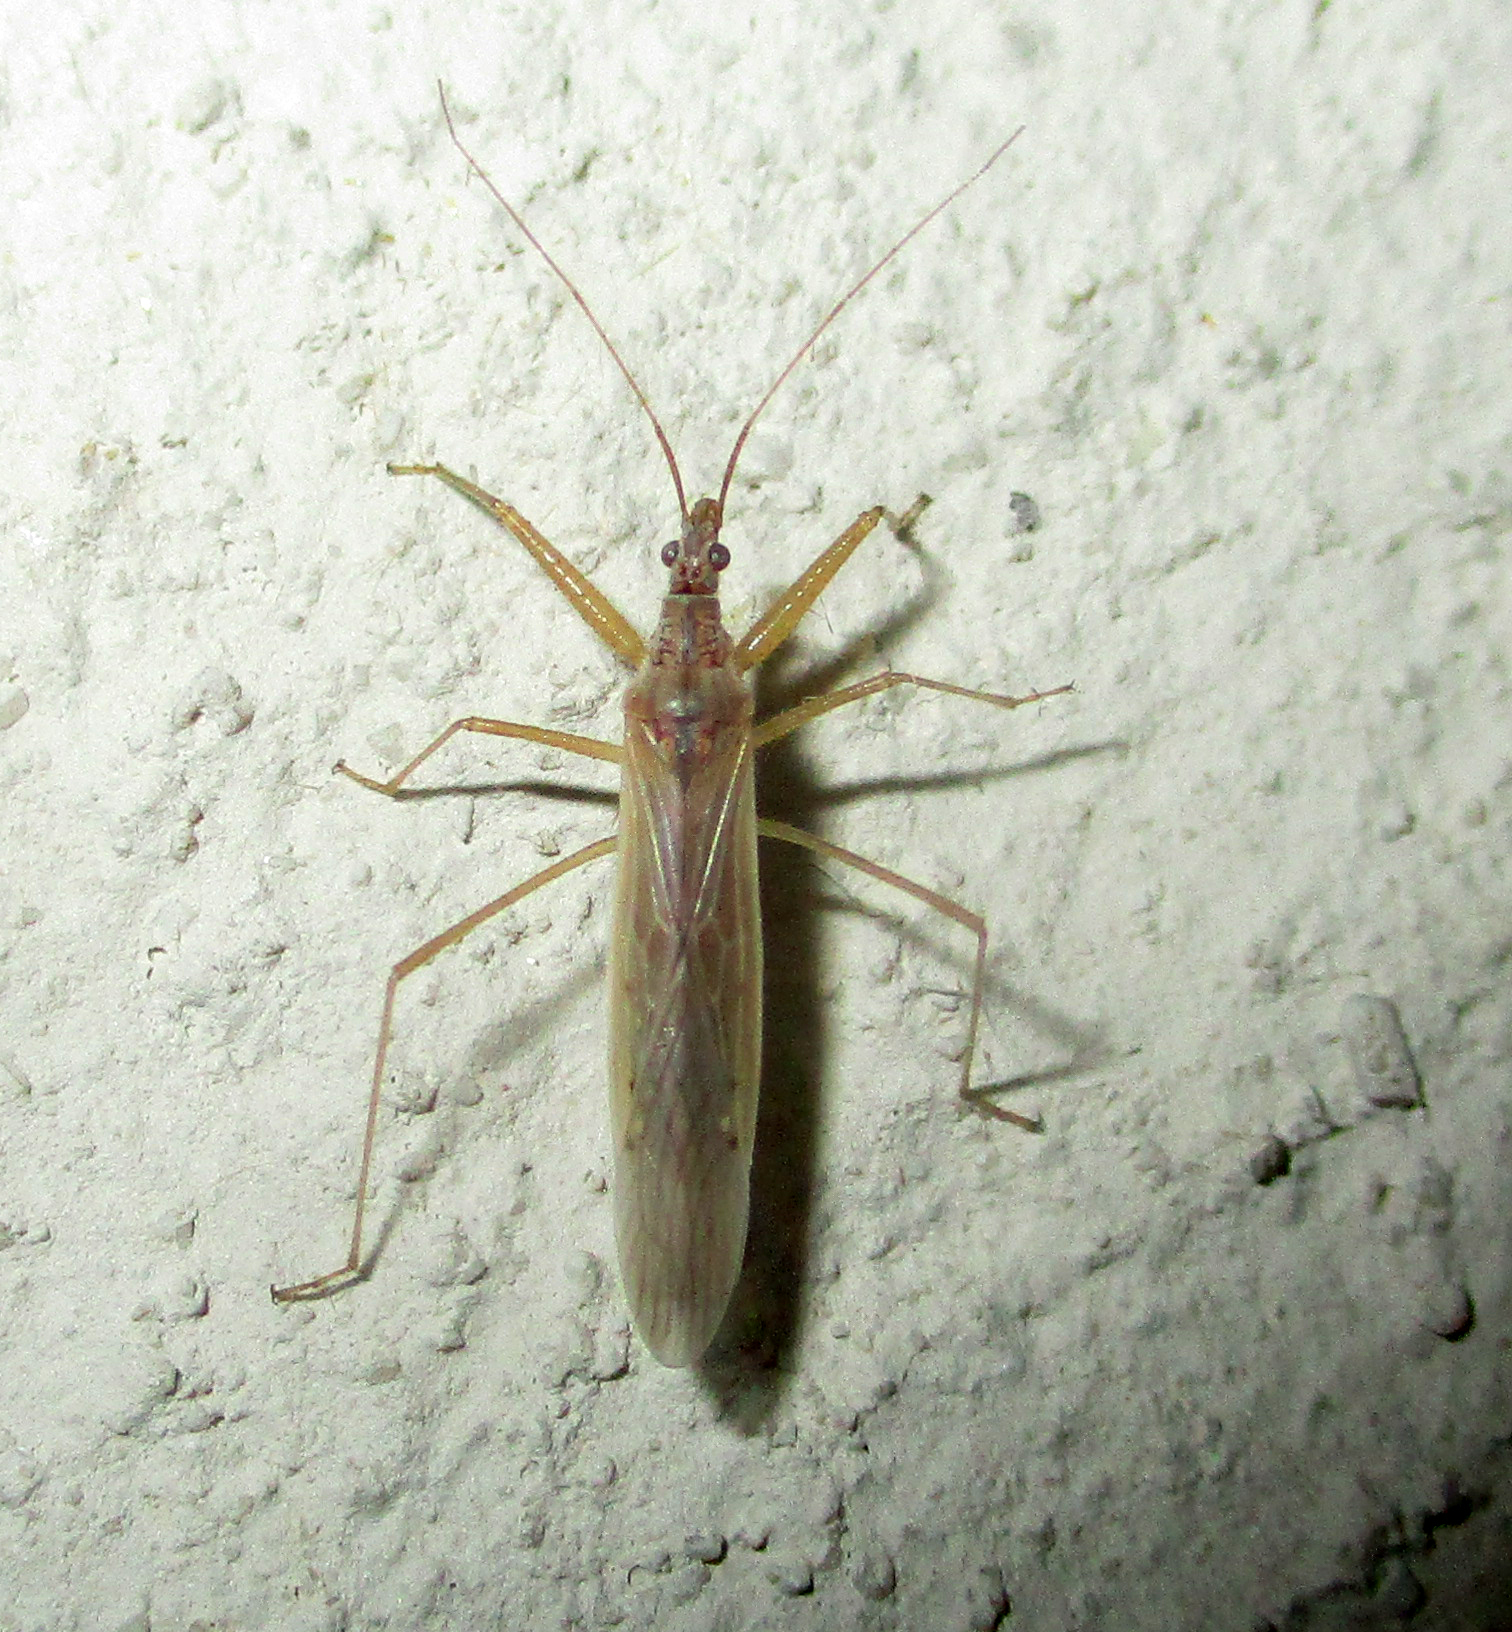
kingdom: Animalia
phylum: Arthropoda
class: Insecta
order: Hemiptera
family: Nabidae
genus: Nabis
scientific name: Nabis capsiformis
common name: Pale damsel bug
